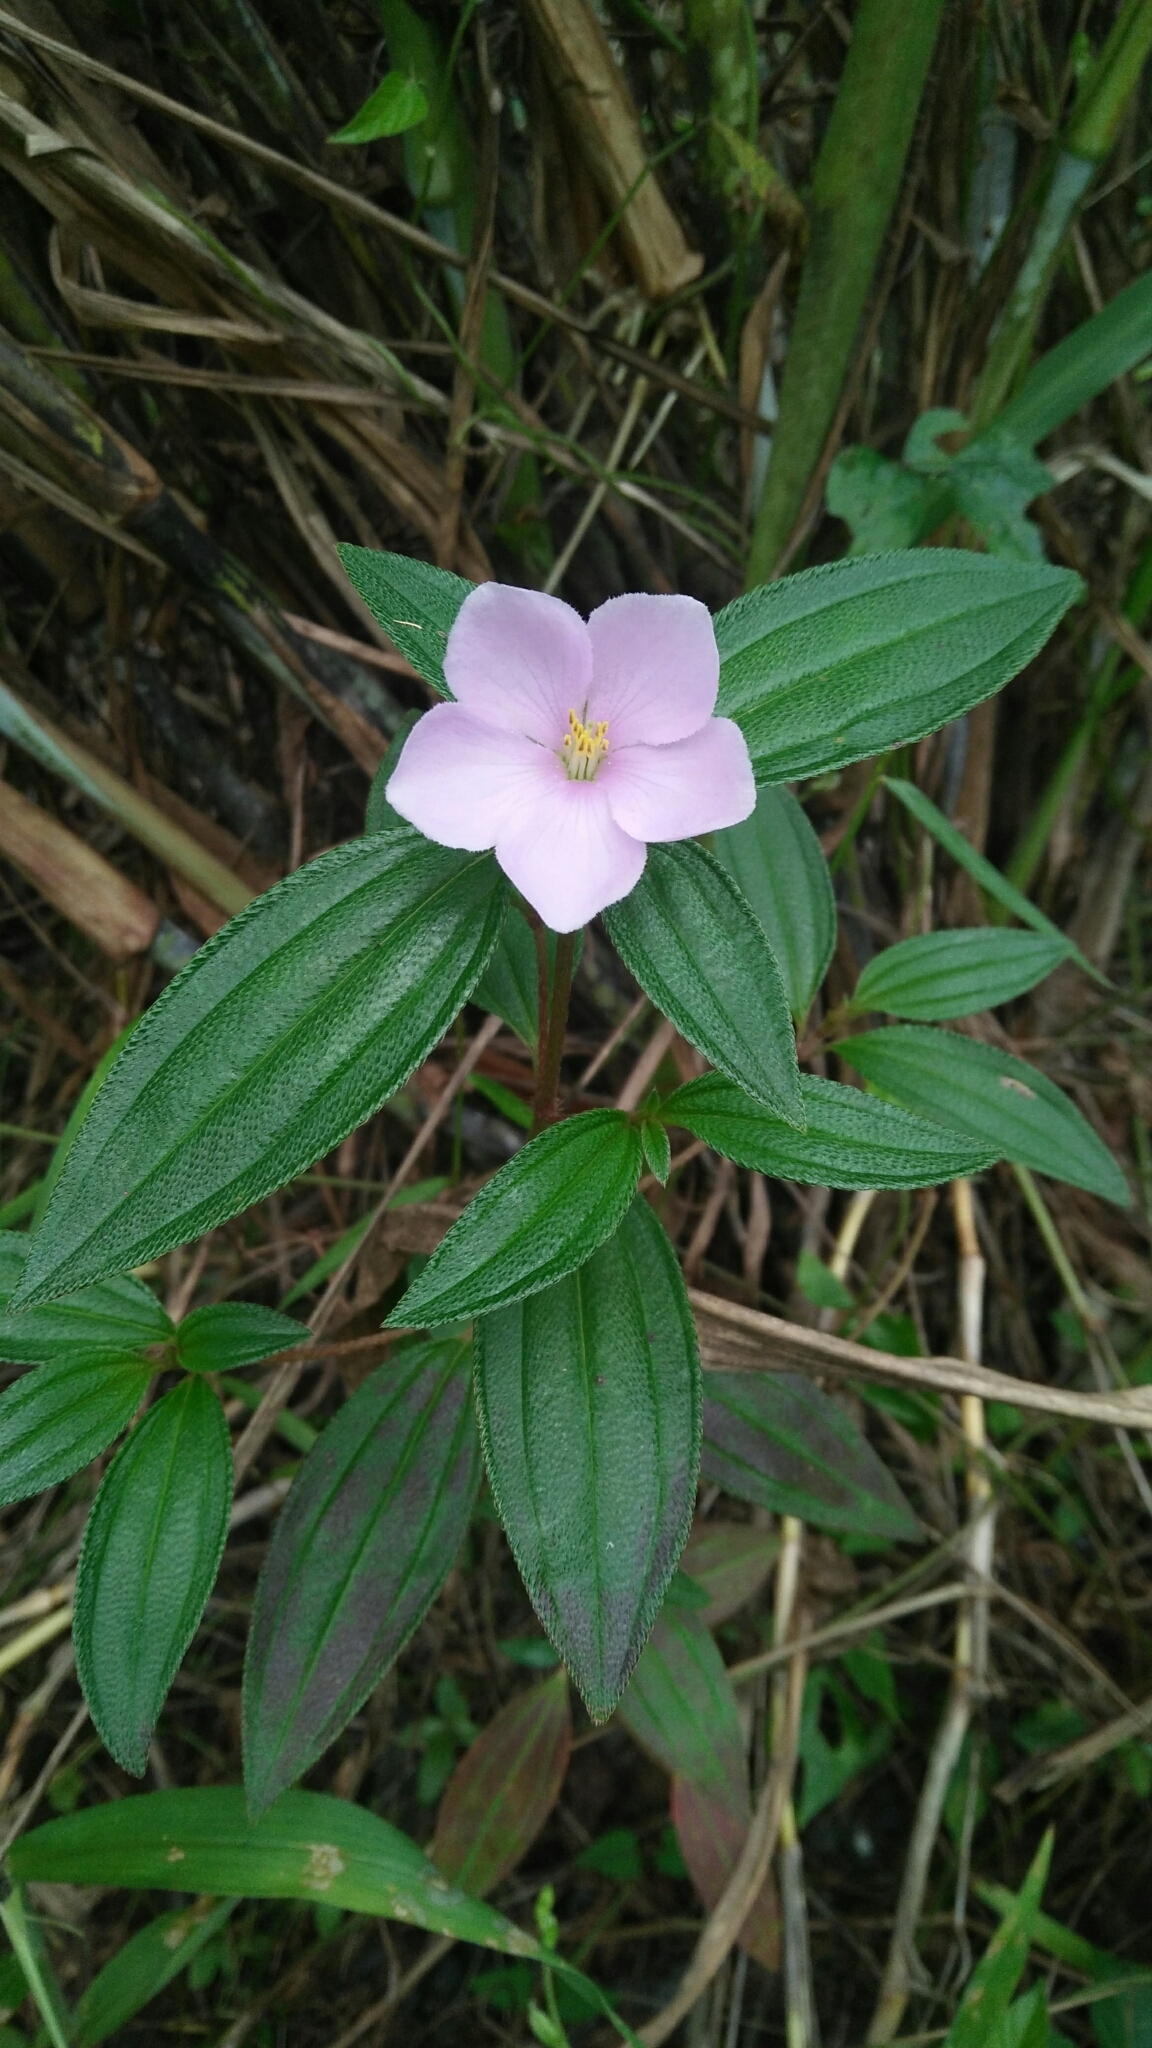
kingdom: Plantae
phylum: Tracheophyta
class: Magnoliopsida
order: Myrtales
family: Melastomataceae
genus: Melastoma
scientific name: Melastoma scaberrima
